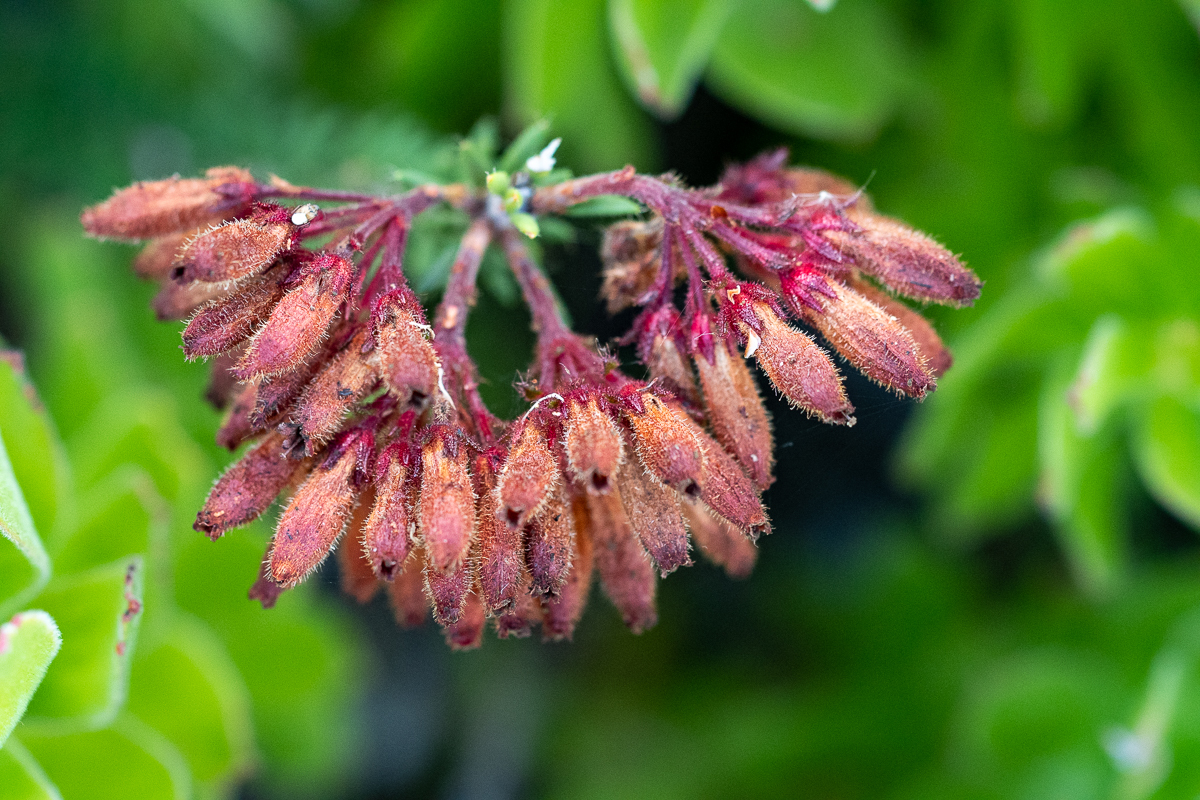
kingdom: Plantae
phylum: Tracheophyta
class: Magnoliopsida
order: Ericales
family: Ericaceae
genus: Erica
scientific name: Erica cerinthoides
